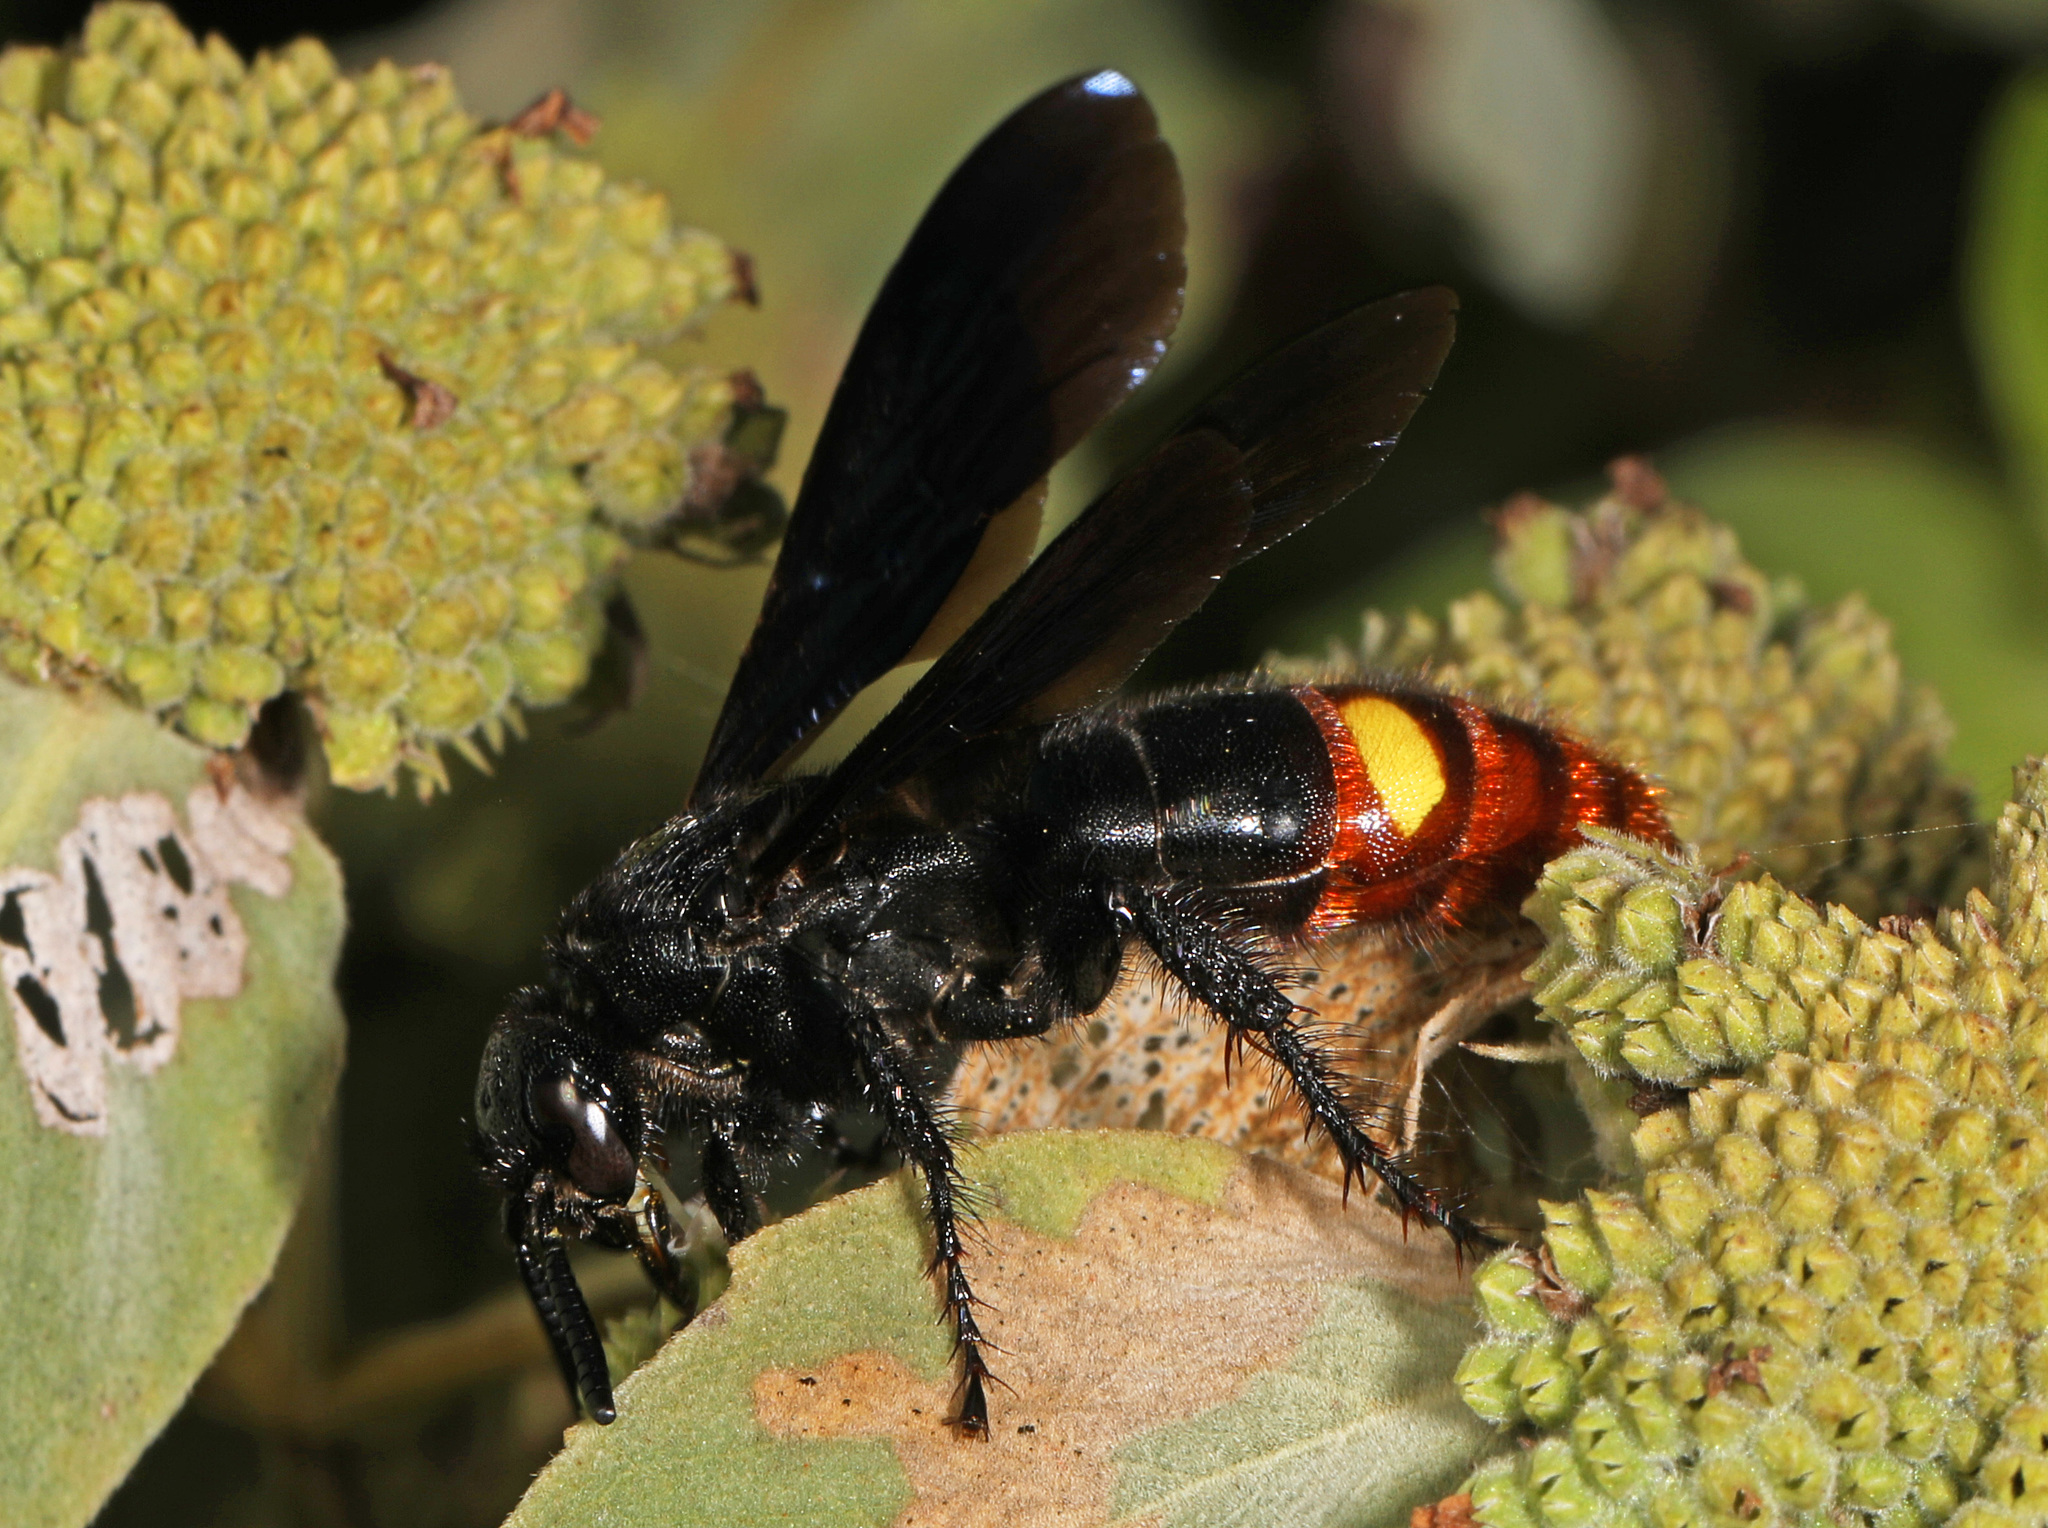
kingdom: Animalia
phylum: Arthropoda
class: Insecta
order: Hymenoptera
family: Scoliidae
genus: Scolia
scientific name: Scolia dubia
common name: Blue-winged scoliid wasp
